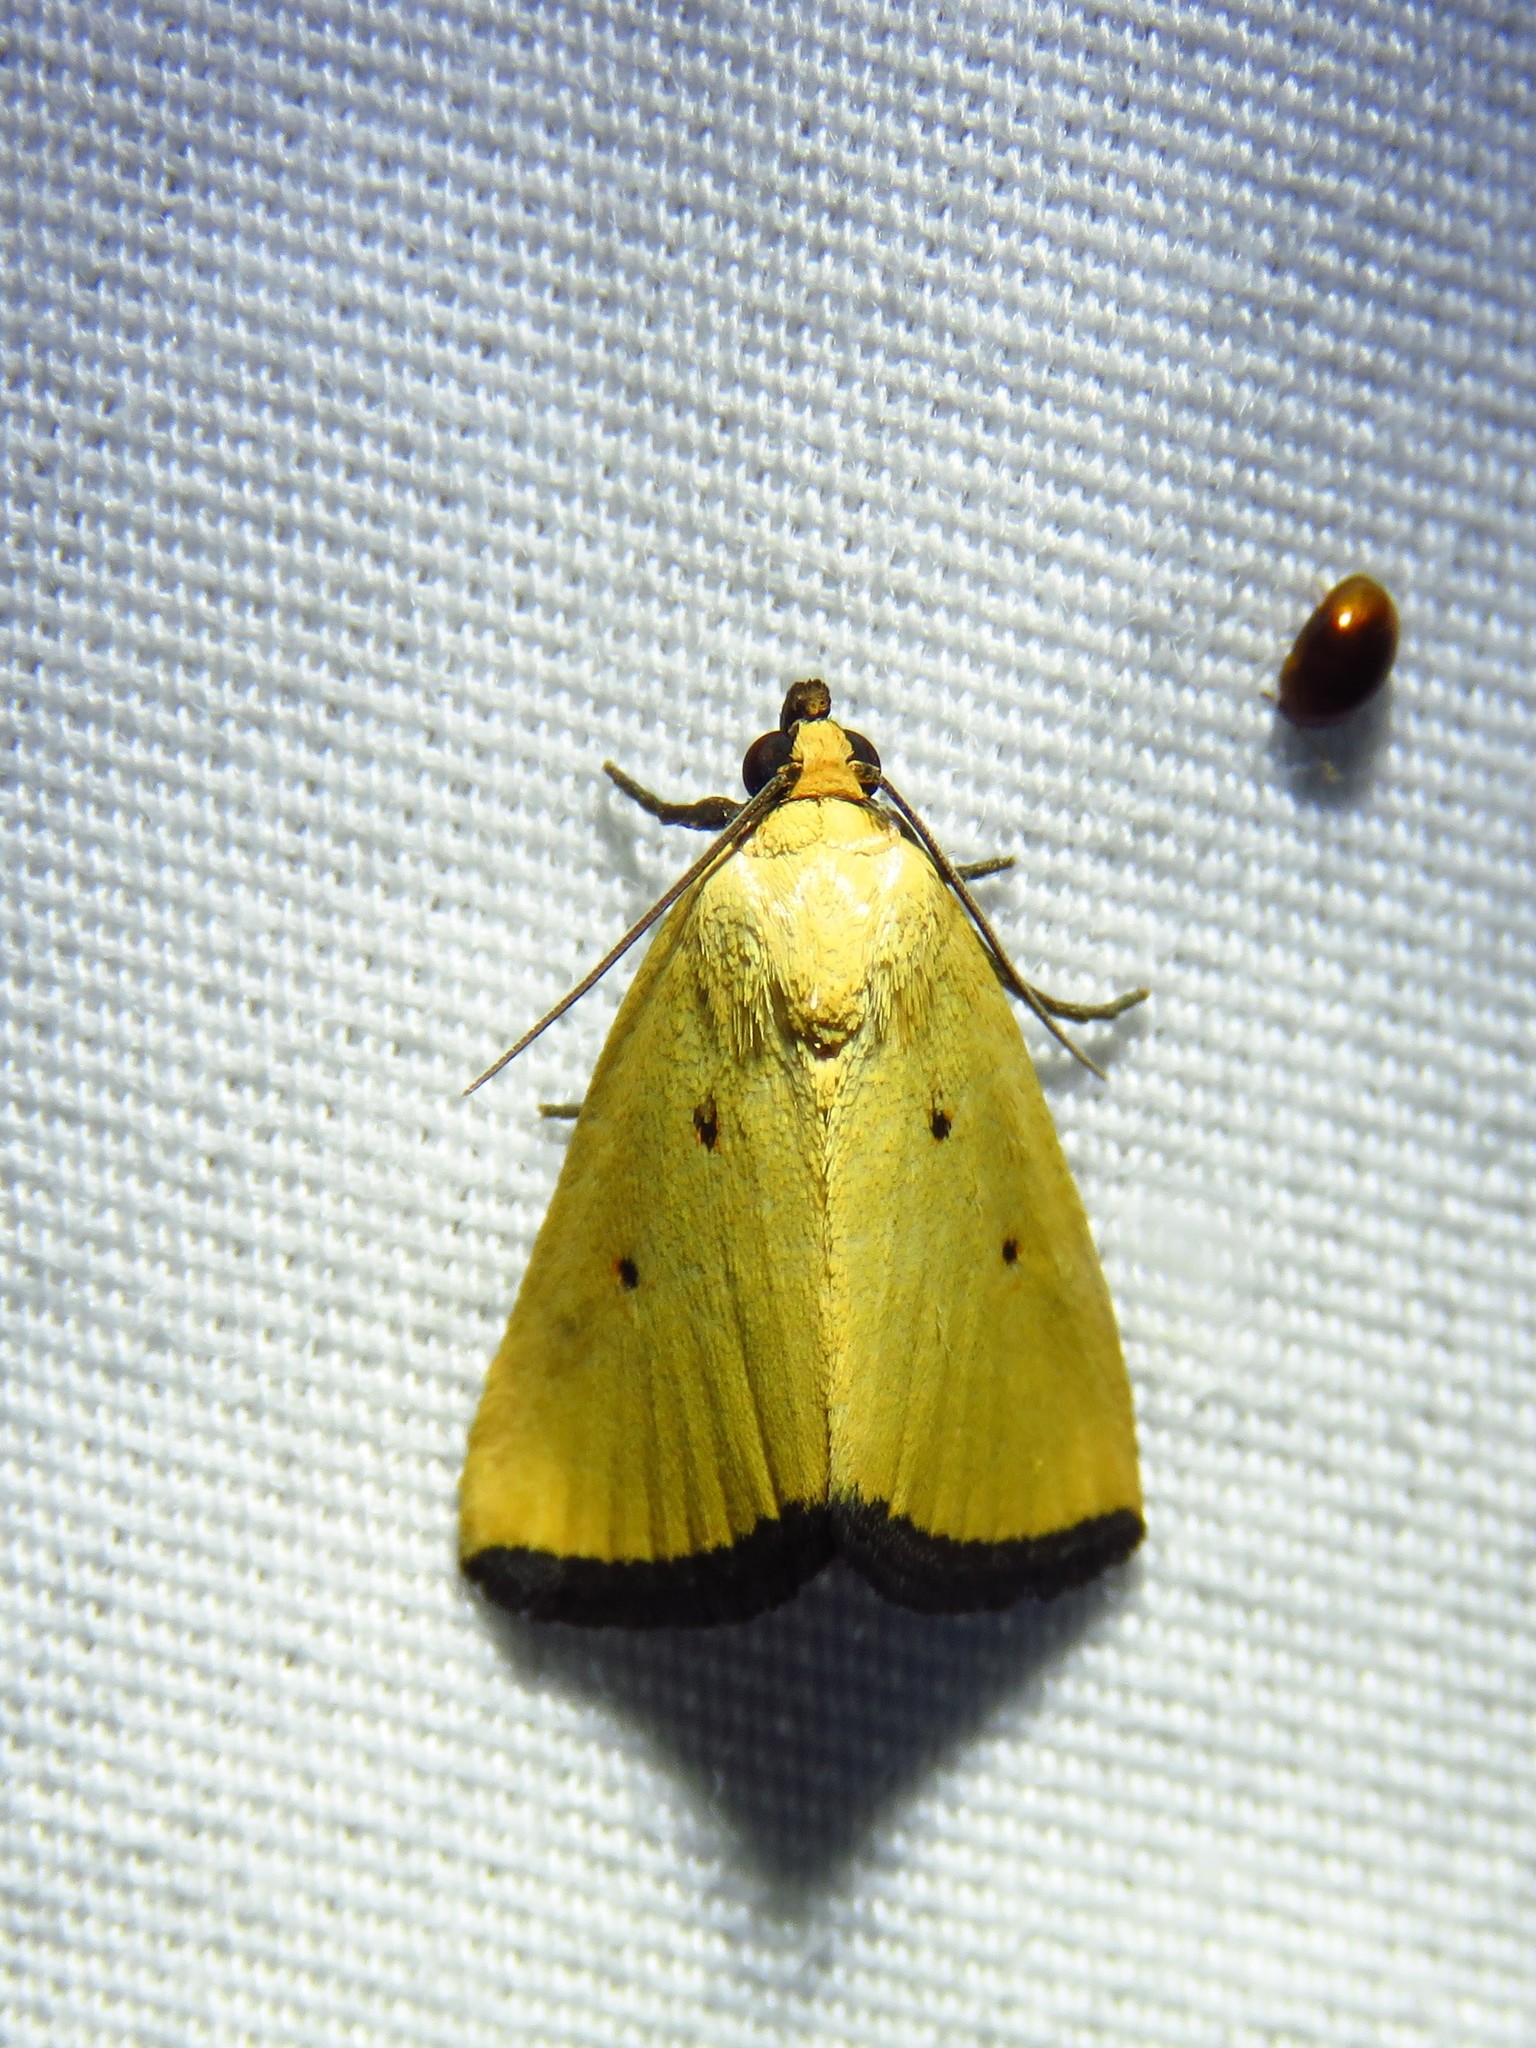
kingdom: Animalia
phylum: Arthropoda
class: Insecta
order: Lepidoptera
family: Noctuidae
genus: Marimatha
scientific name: Marimatha nigrofimbria
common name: Black-bordered lemon moth
